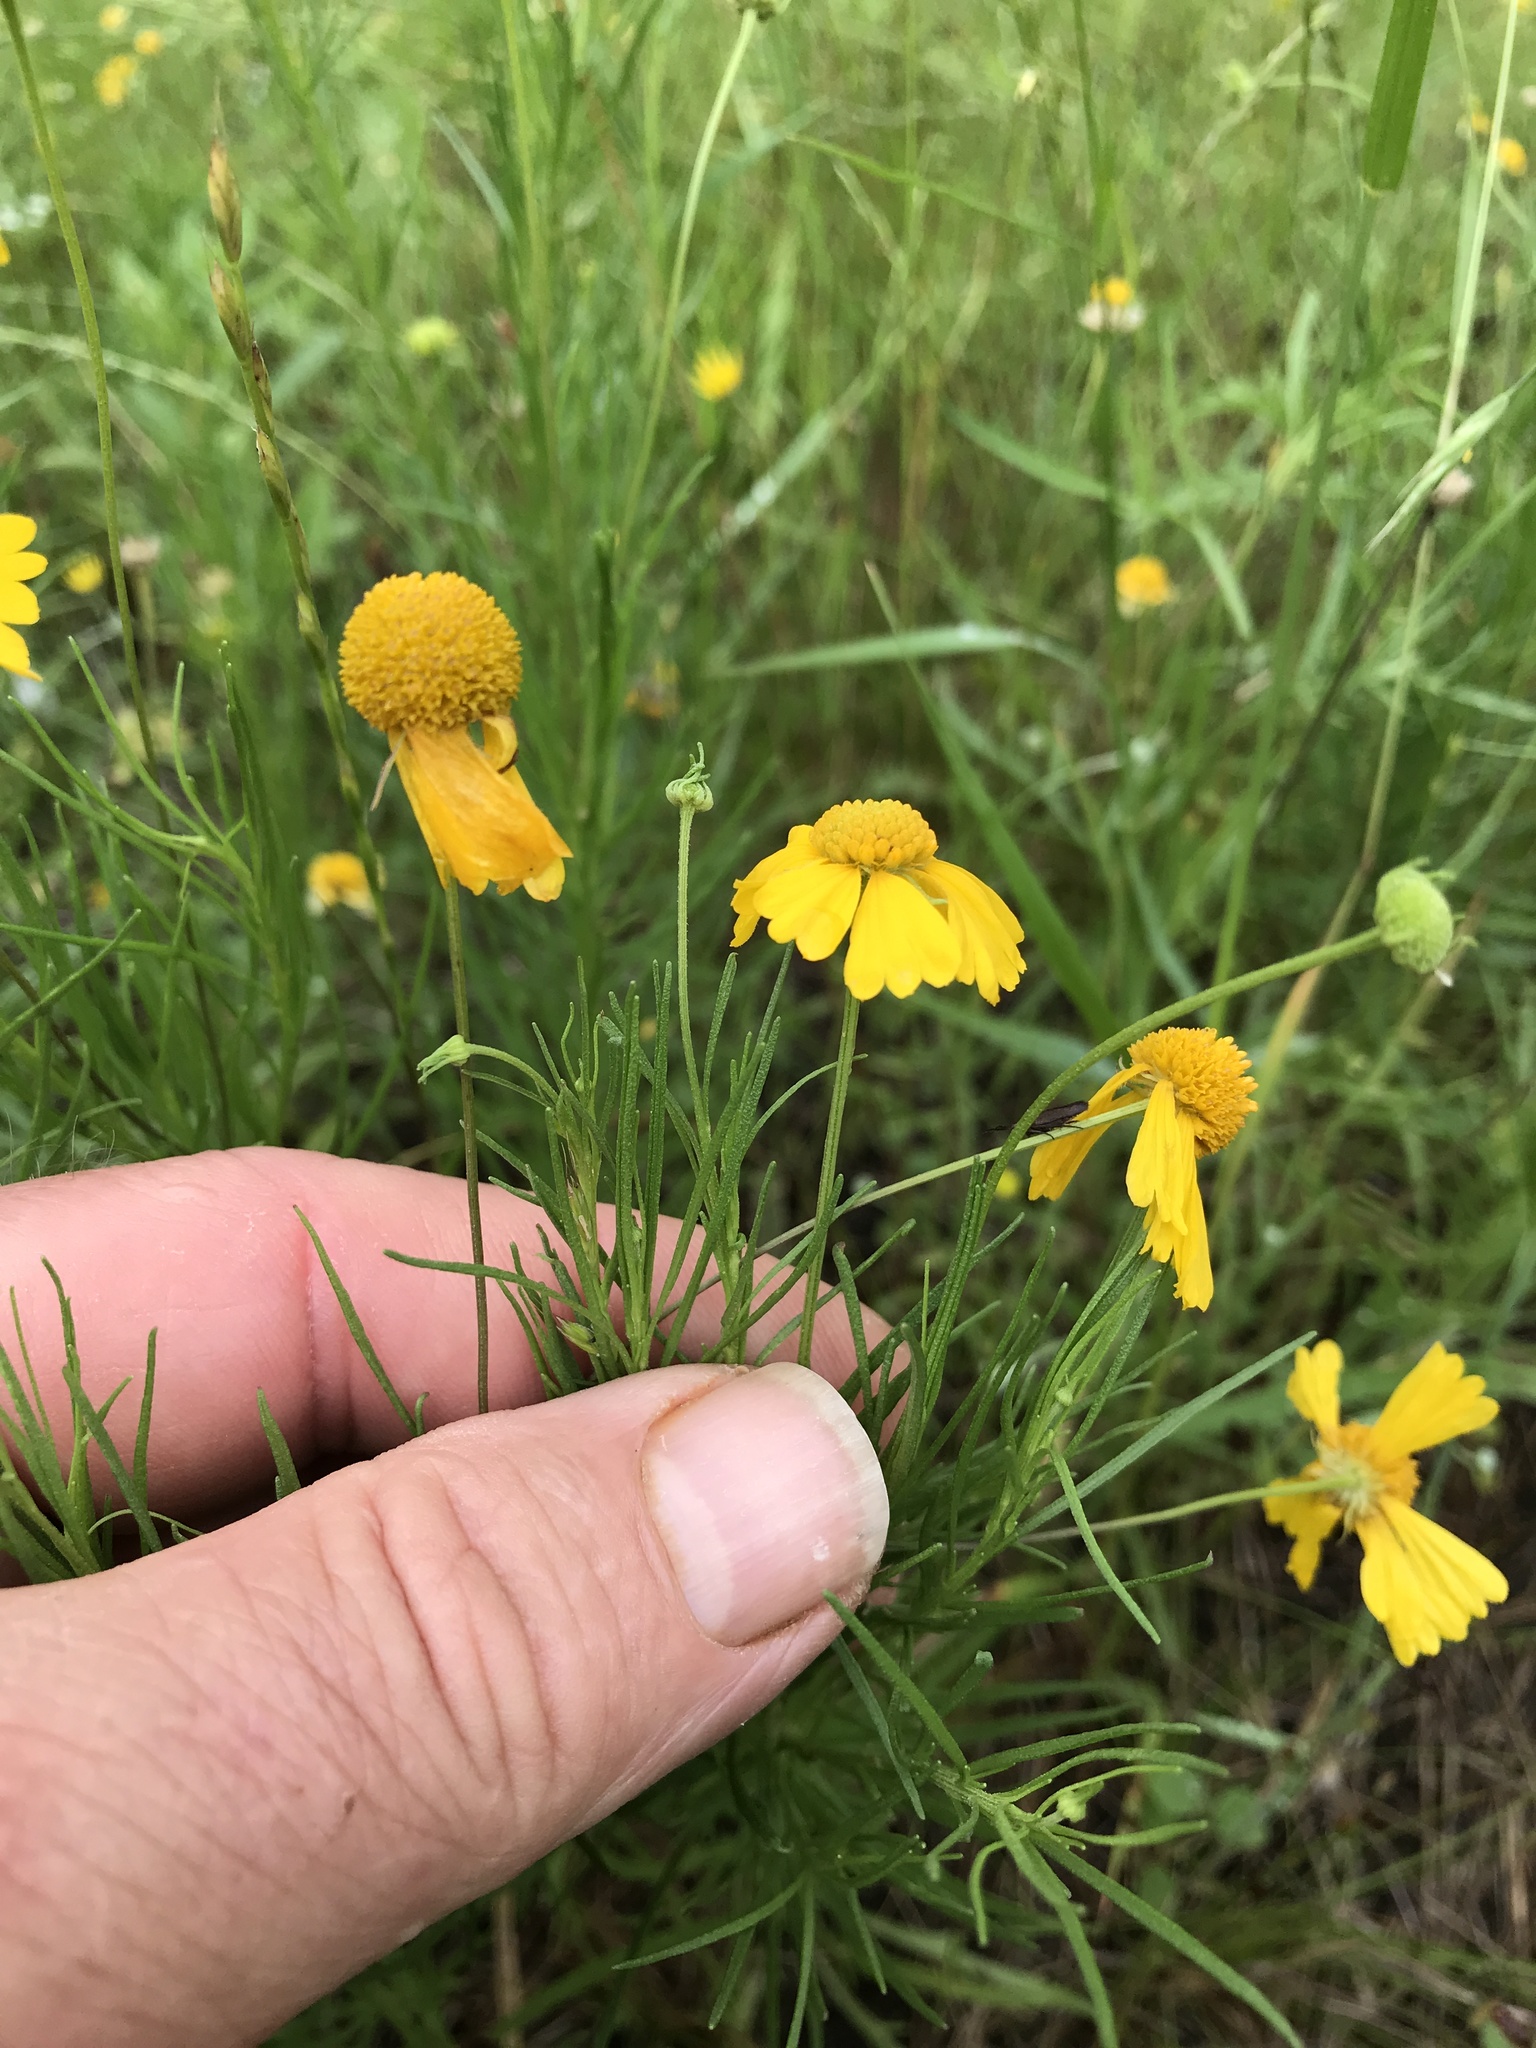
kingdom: Plantae
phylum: Tracheophyta
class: Magnoliopsida
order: Asterales
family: Asteraceae
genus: Helenium
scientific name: Helenium amarum
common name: Bitter sneezeweed
